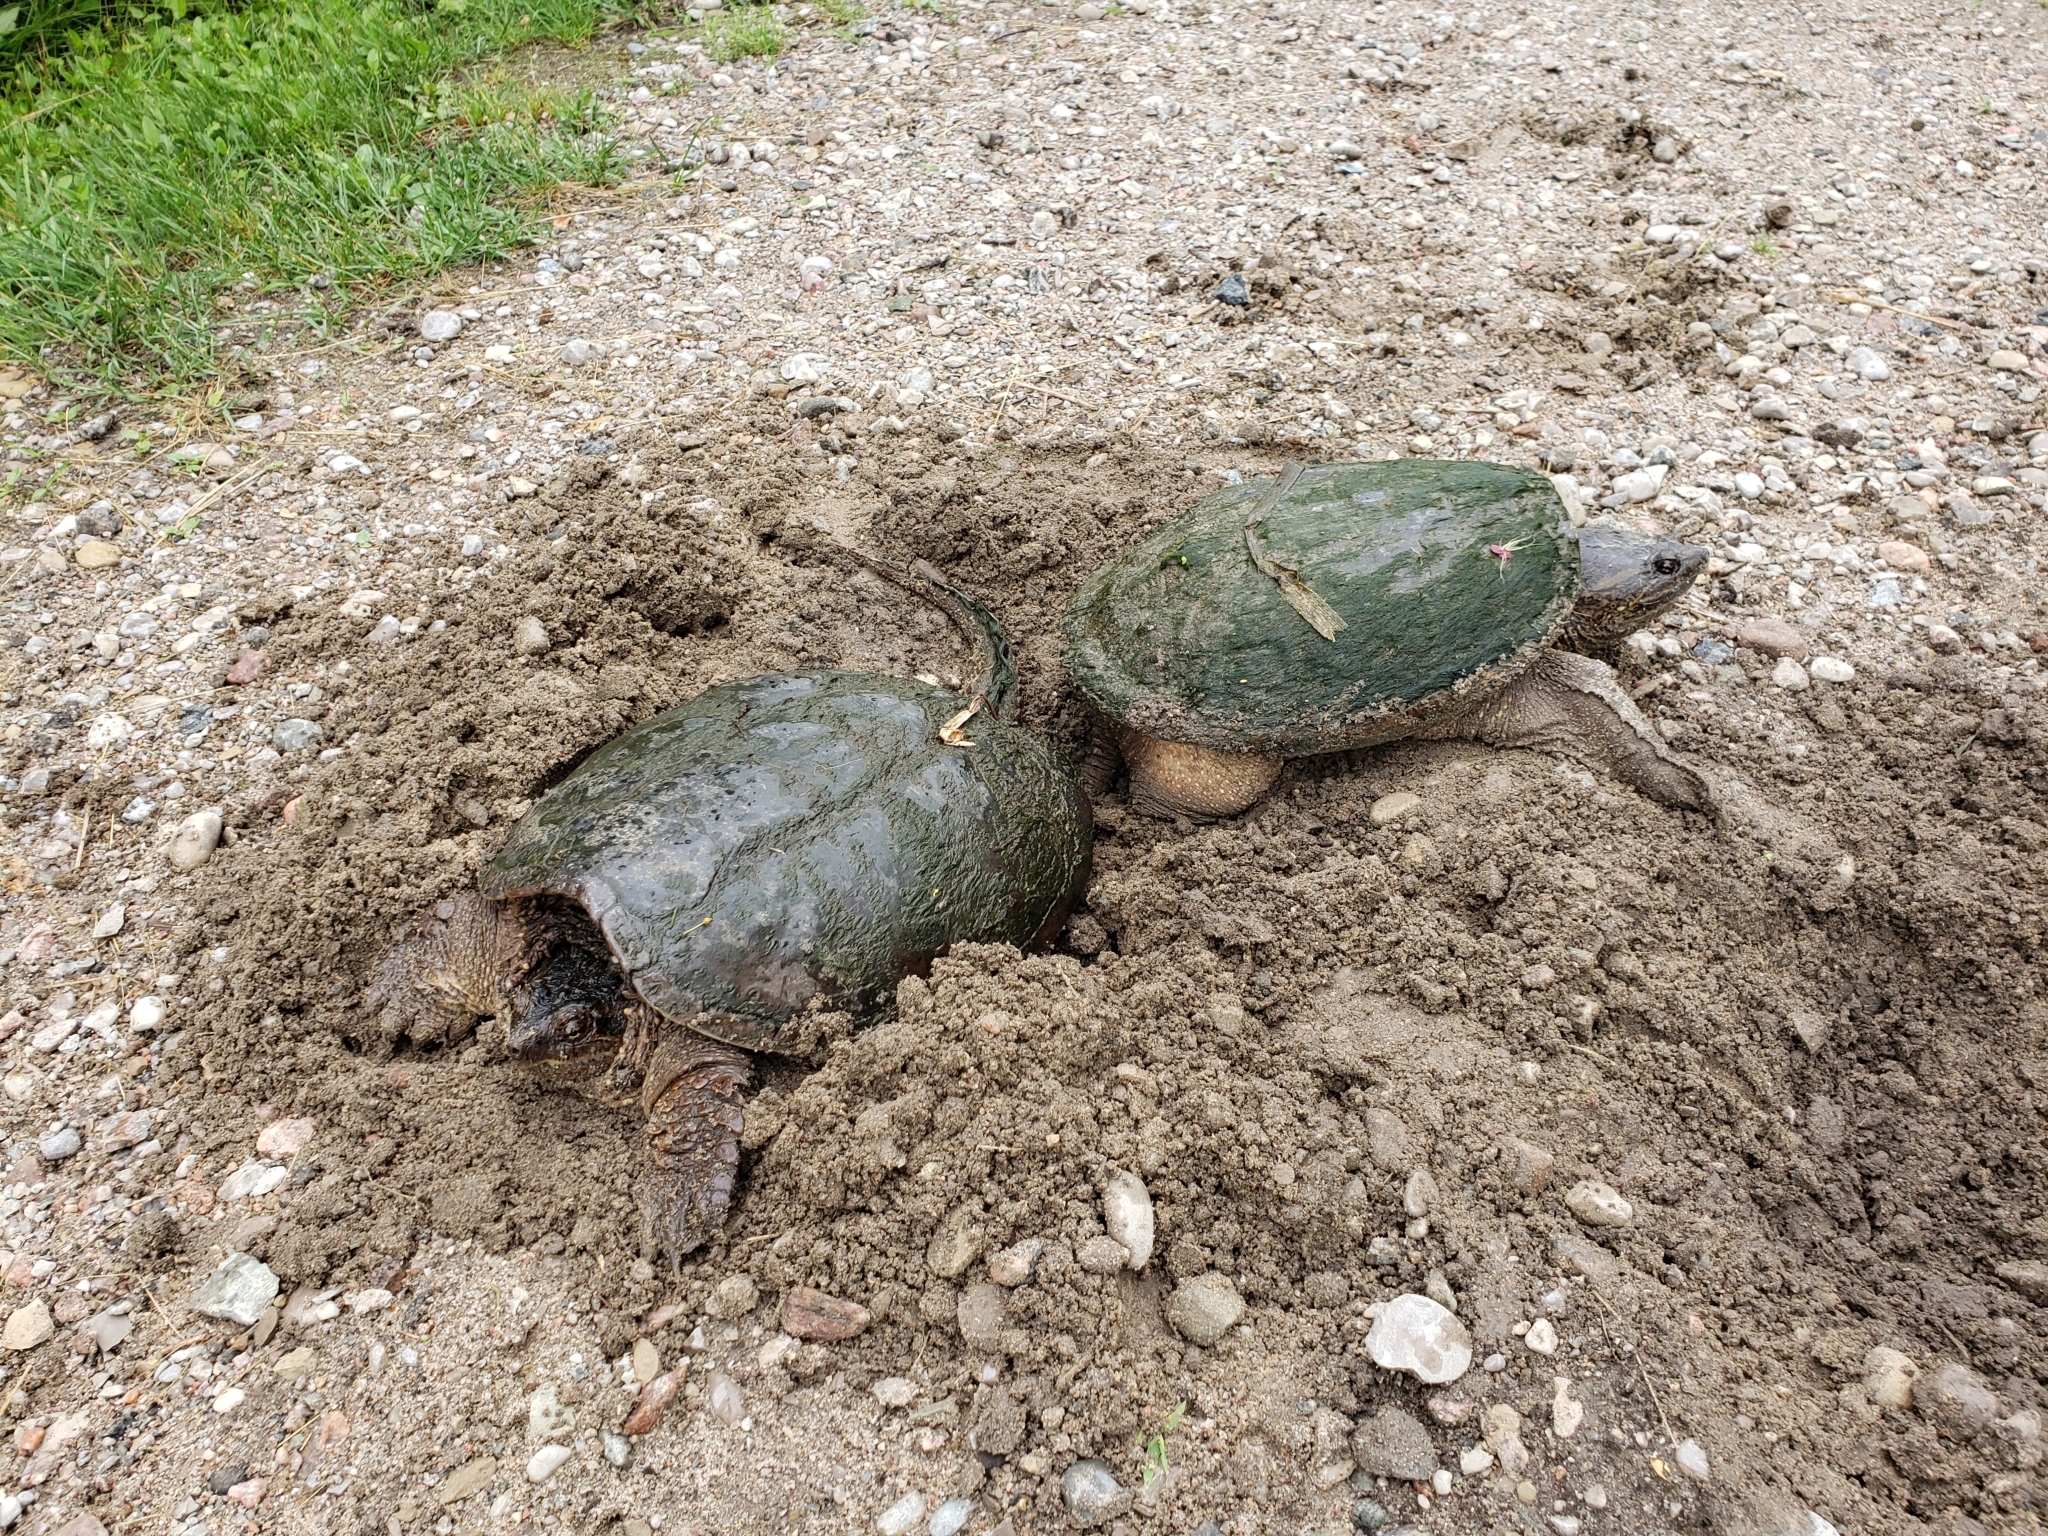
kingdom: Animalia
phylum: Chordata
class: Testudines
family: Chelydridae
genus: Chelydra
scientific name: Chelydra serpentina
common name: Common snapping turtle
